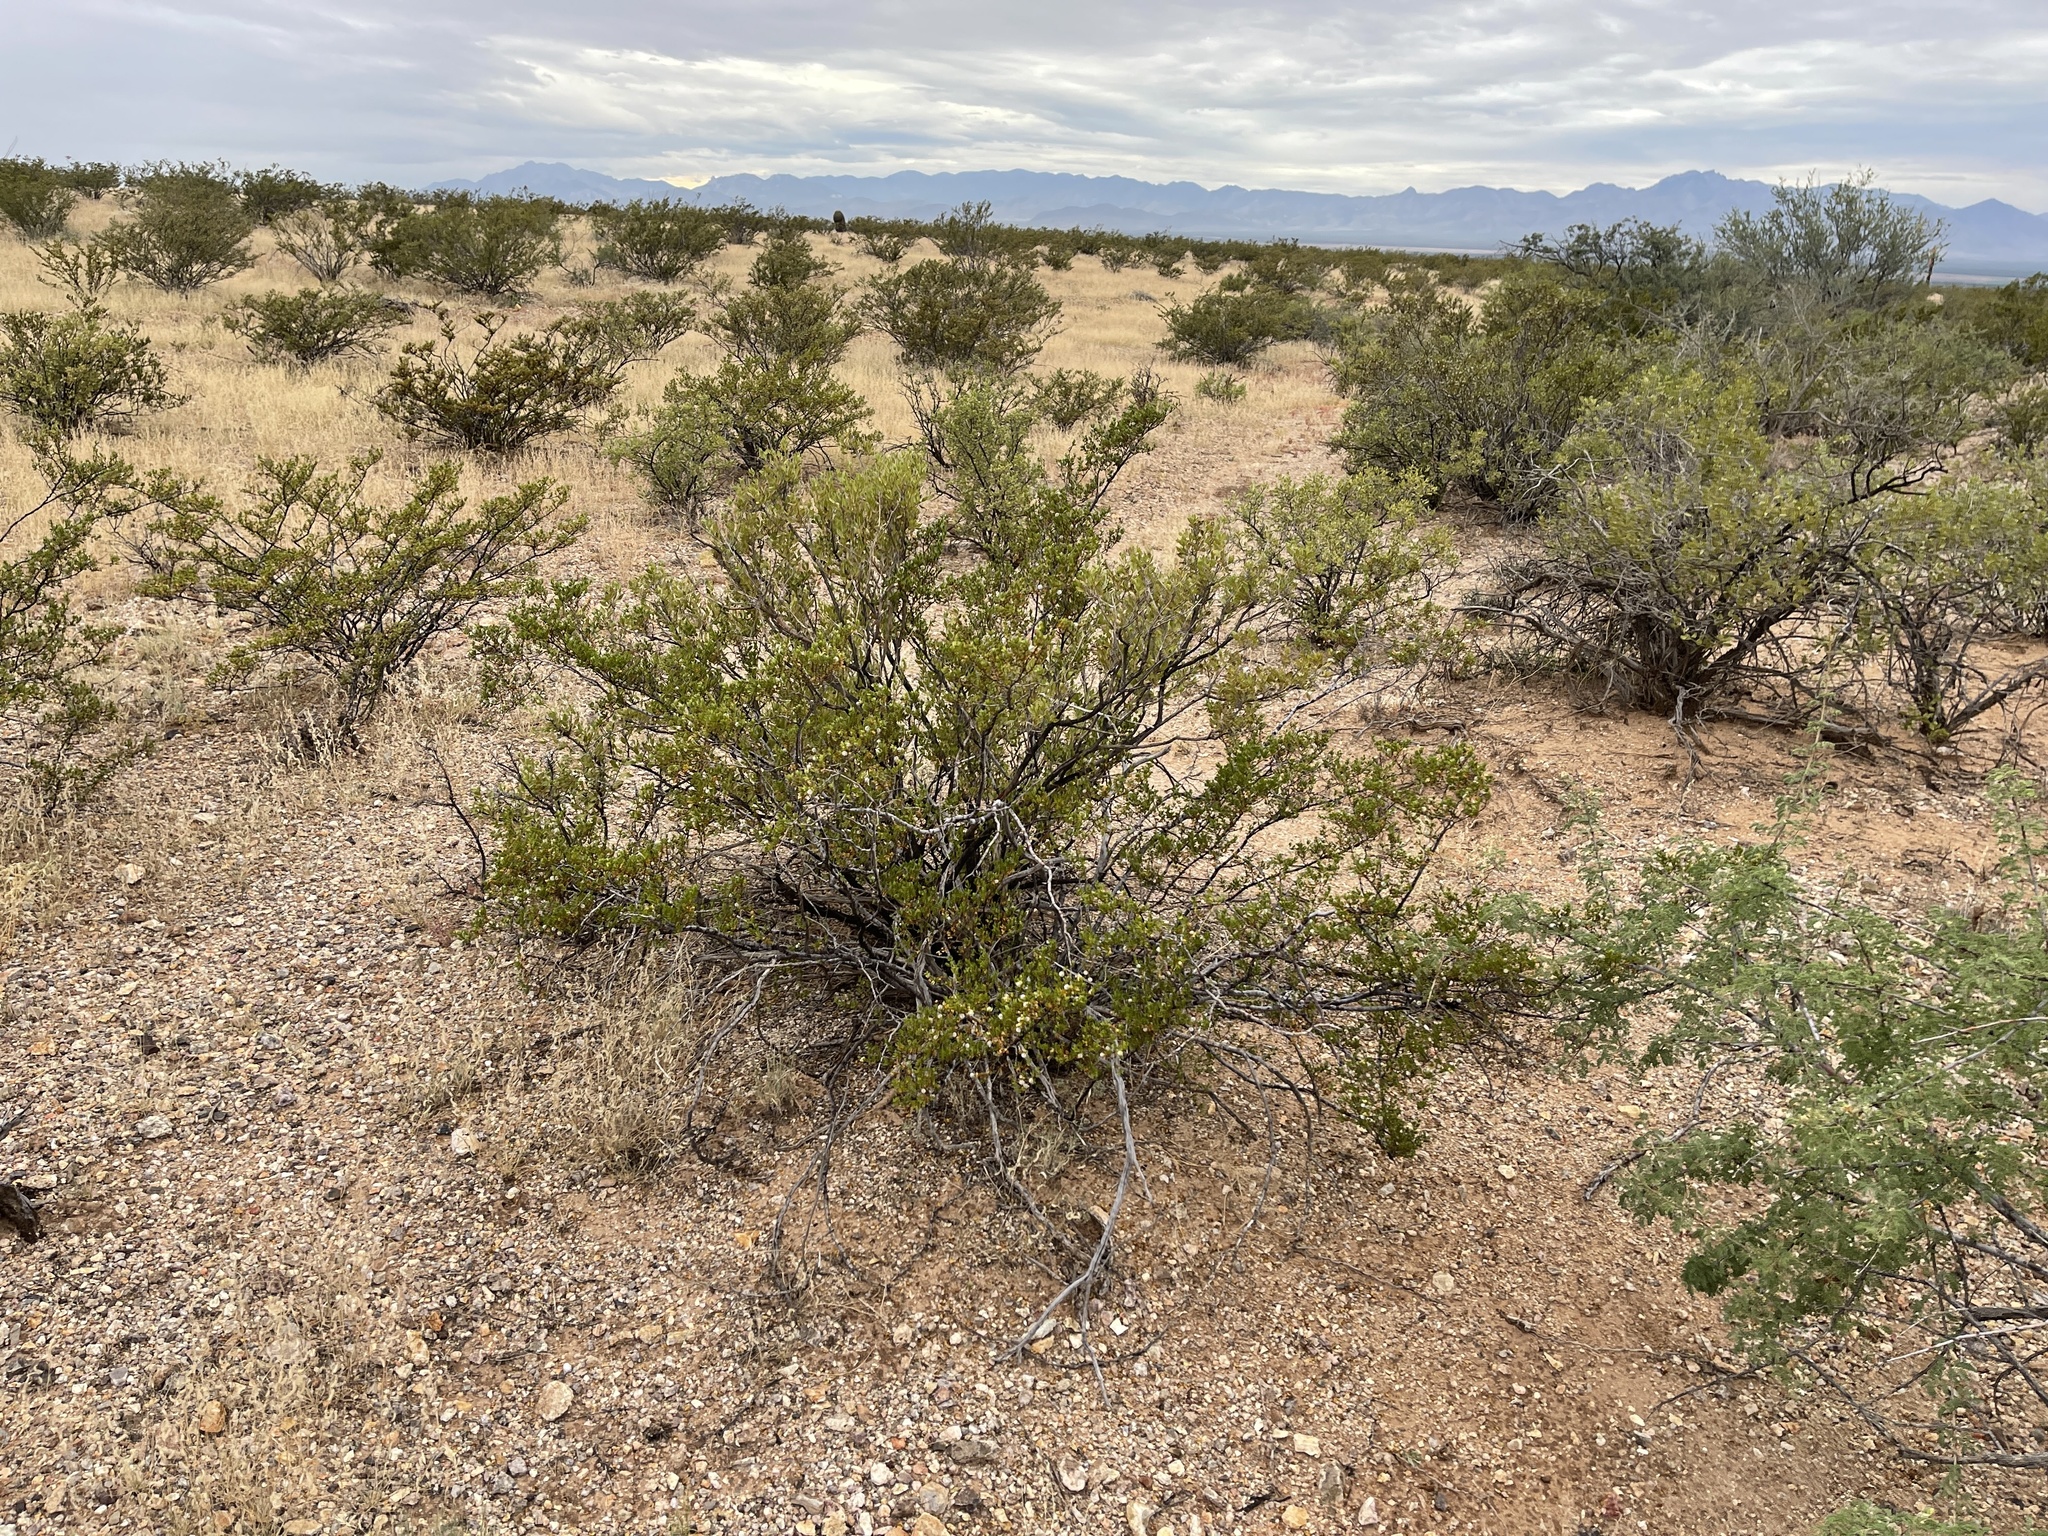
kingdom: Plantae
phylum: Tracheophyta
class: Magnoliopsida
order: Zygophyllales
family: Zygophyllaceae
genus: Larrea
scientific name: Larrea tridentata
